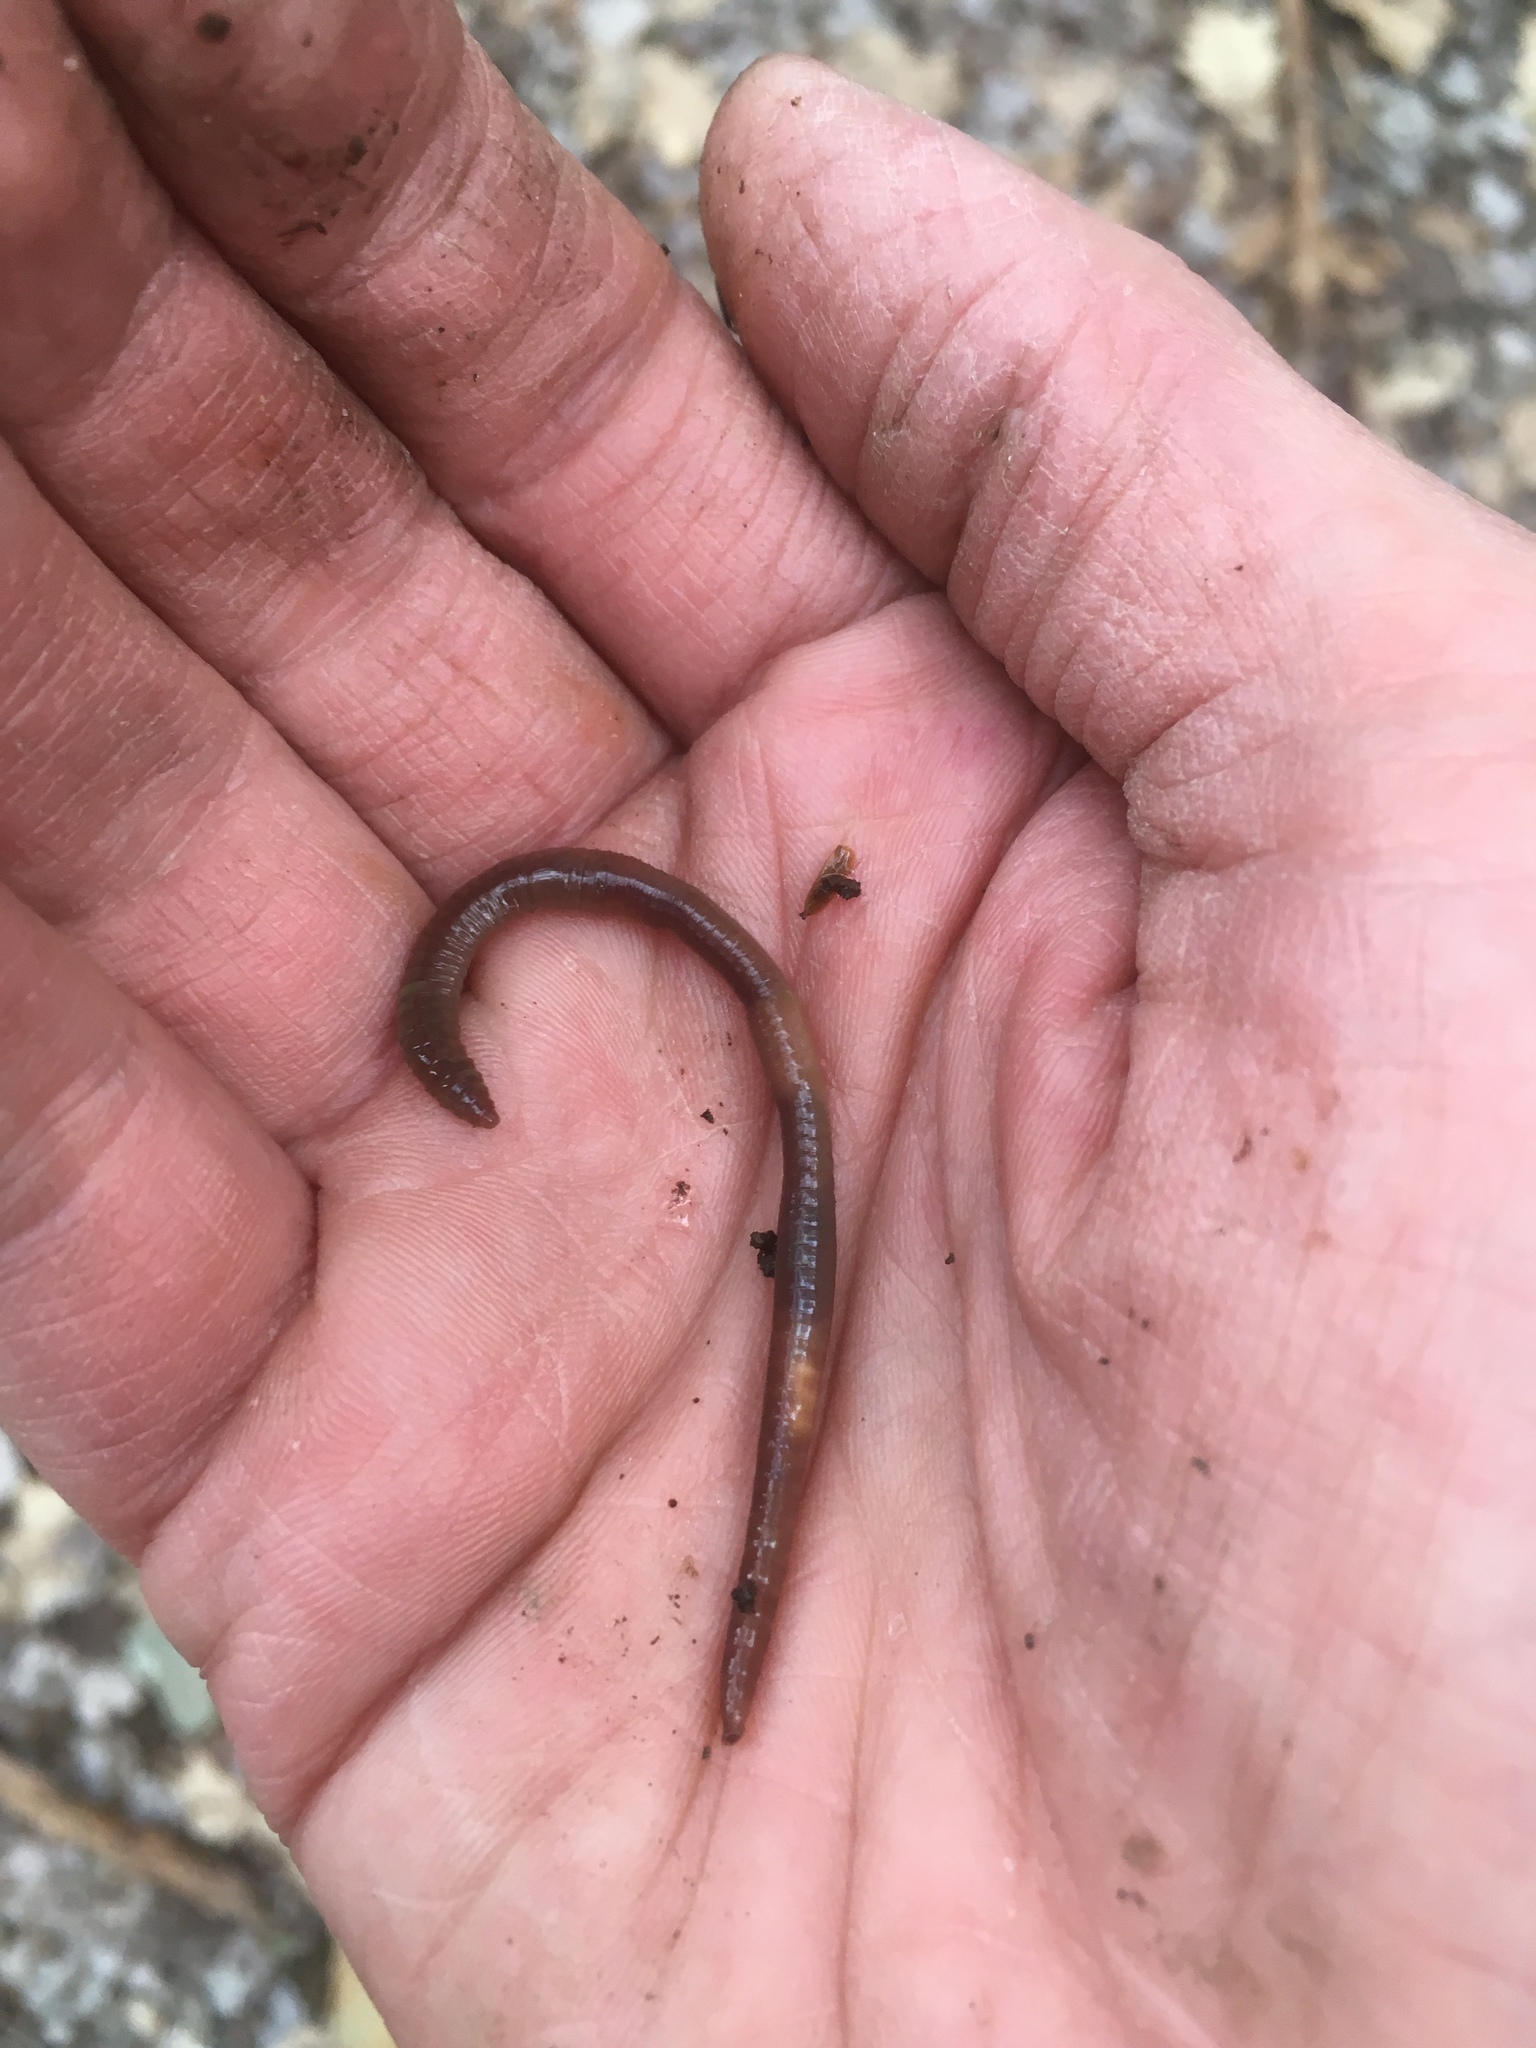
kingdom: Animalia
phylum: Annelida
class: Clitellata
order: Crassiclitellata
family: Lumbricidae
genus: Aporrectodea
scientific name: Aporrectodea caliginosa
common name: Grey worm
